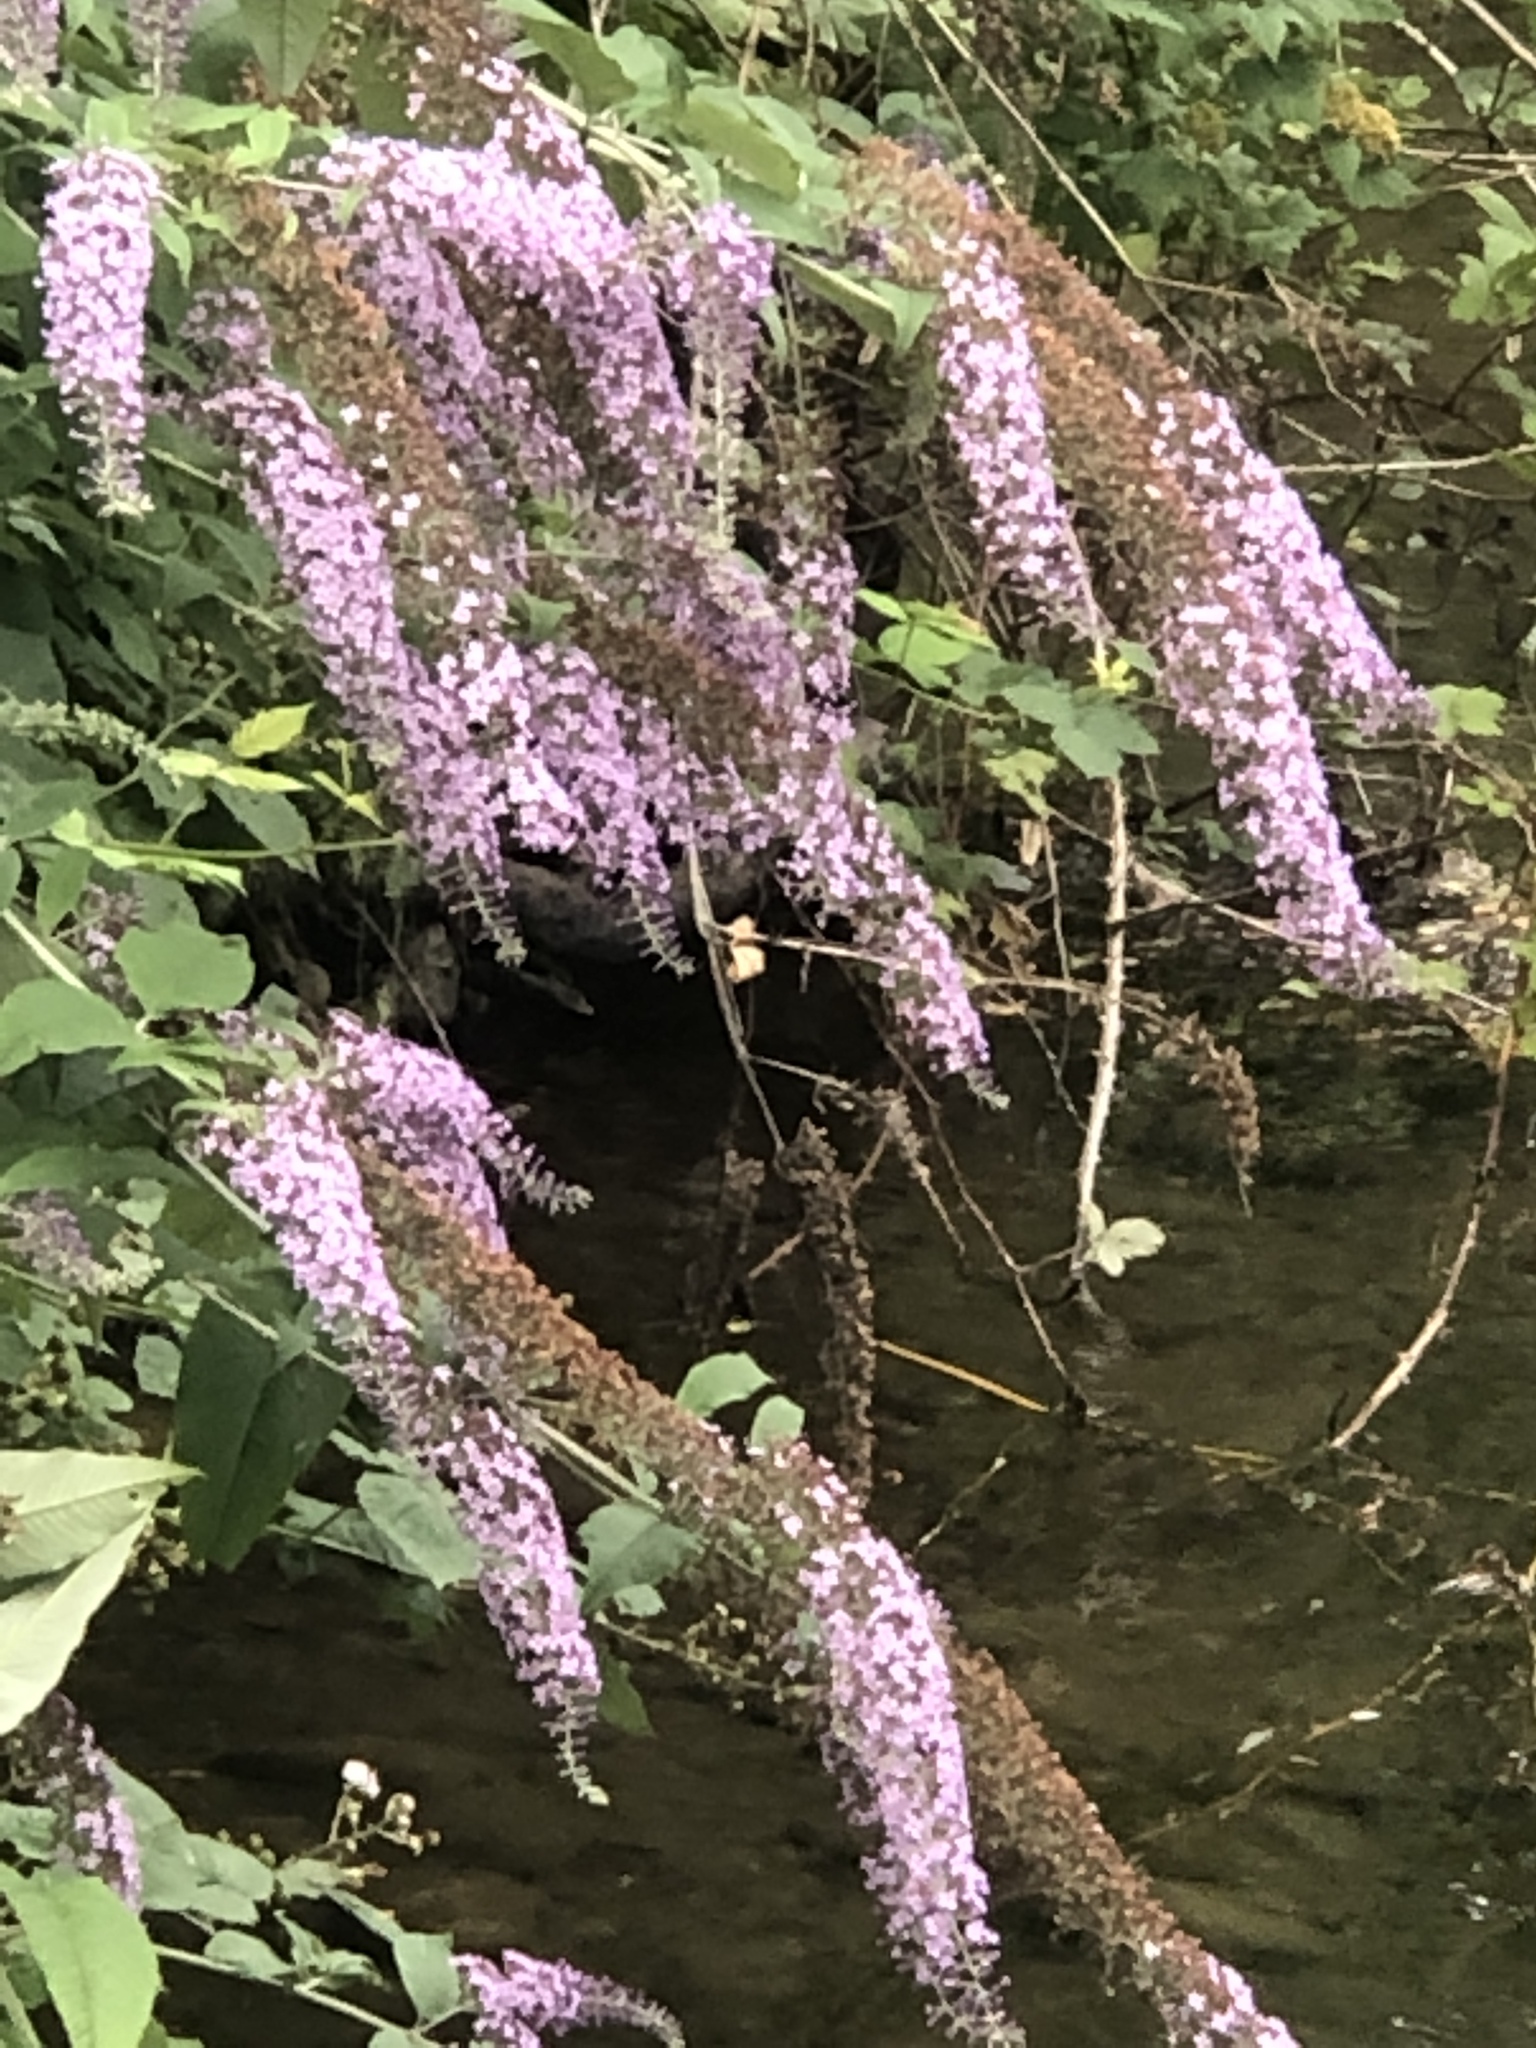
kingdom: Plantae
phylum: Tracheophyta
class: Magnoliopsida
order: Lamiales
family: Scrophulariaceae
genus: Buddleja
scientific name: Buddleja davidii
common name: Butterfly-bush
